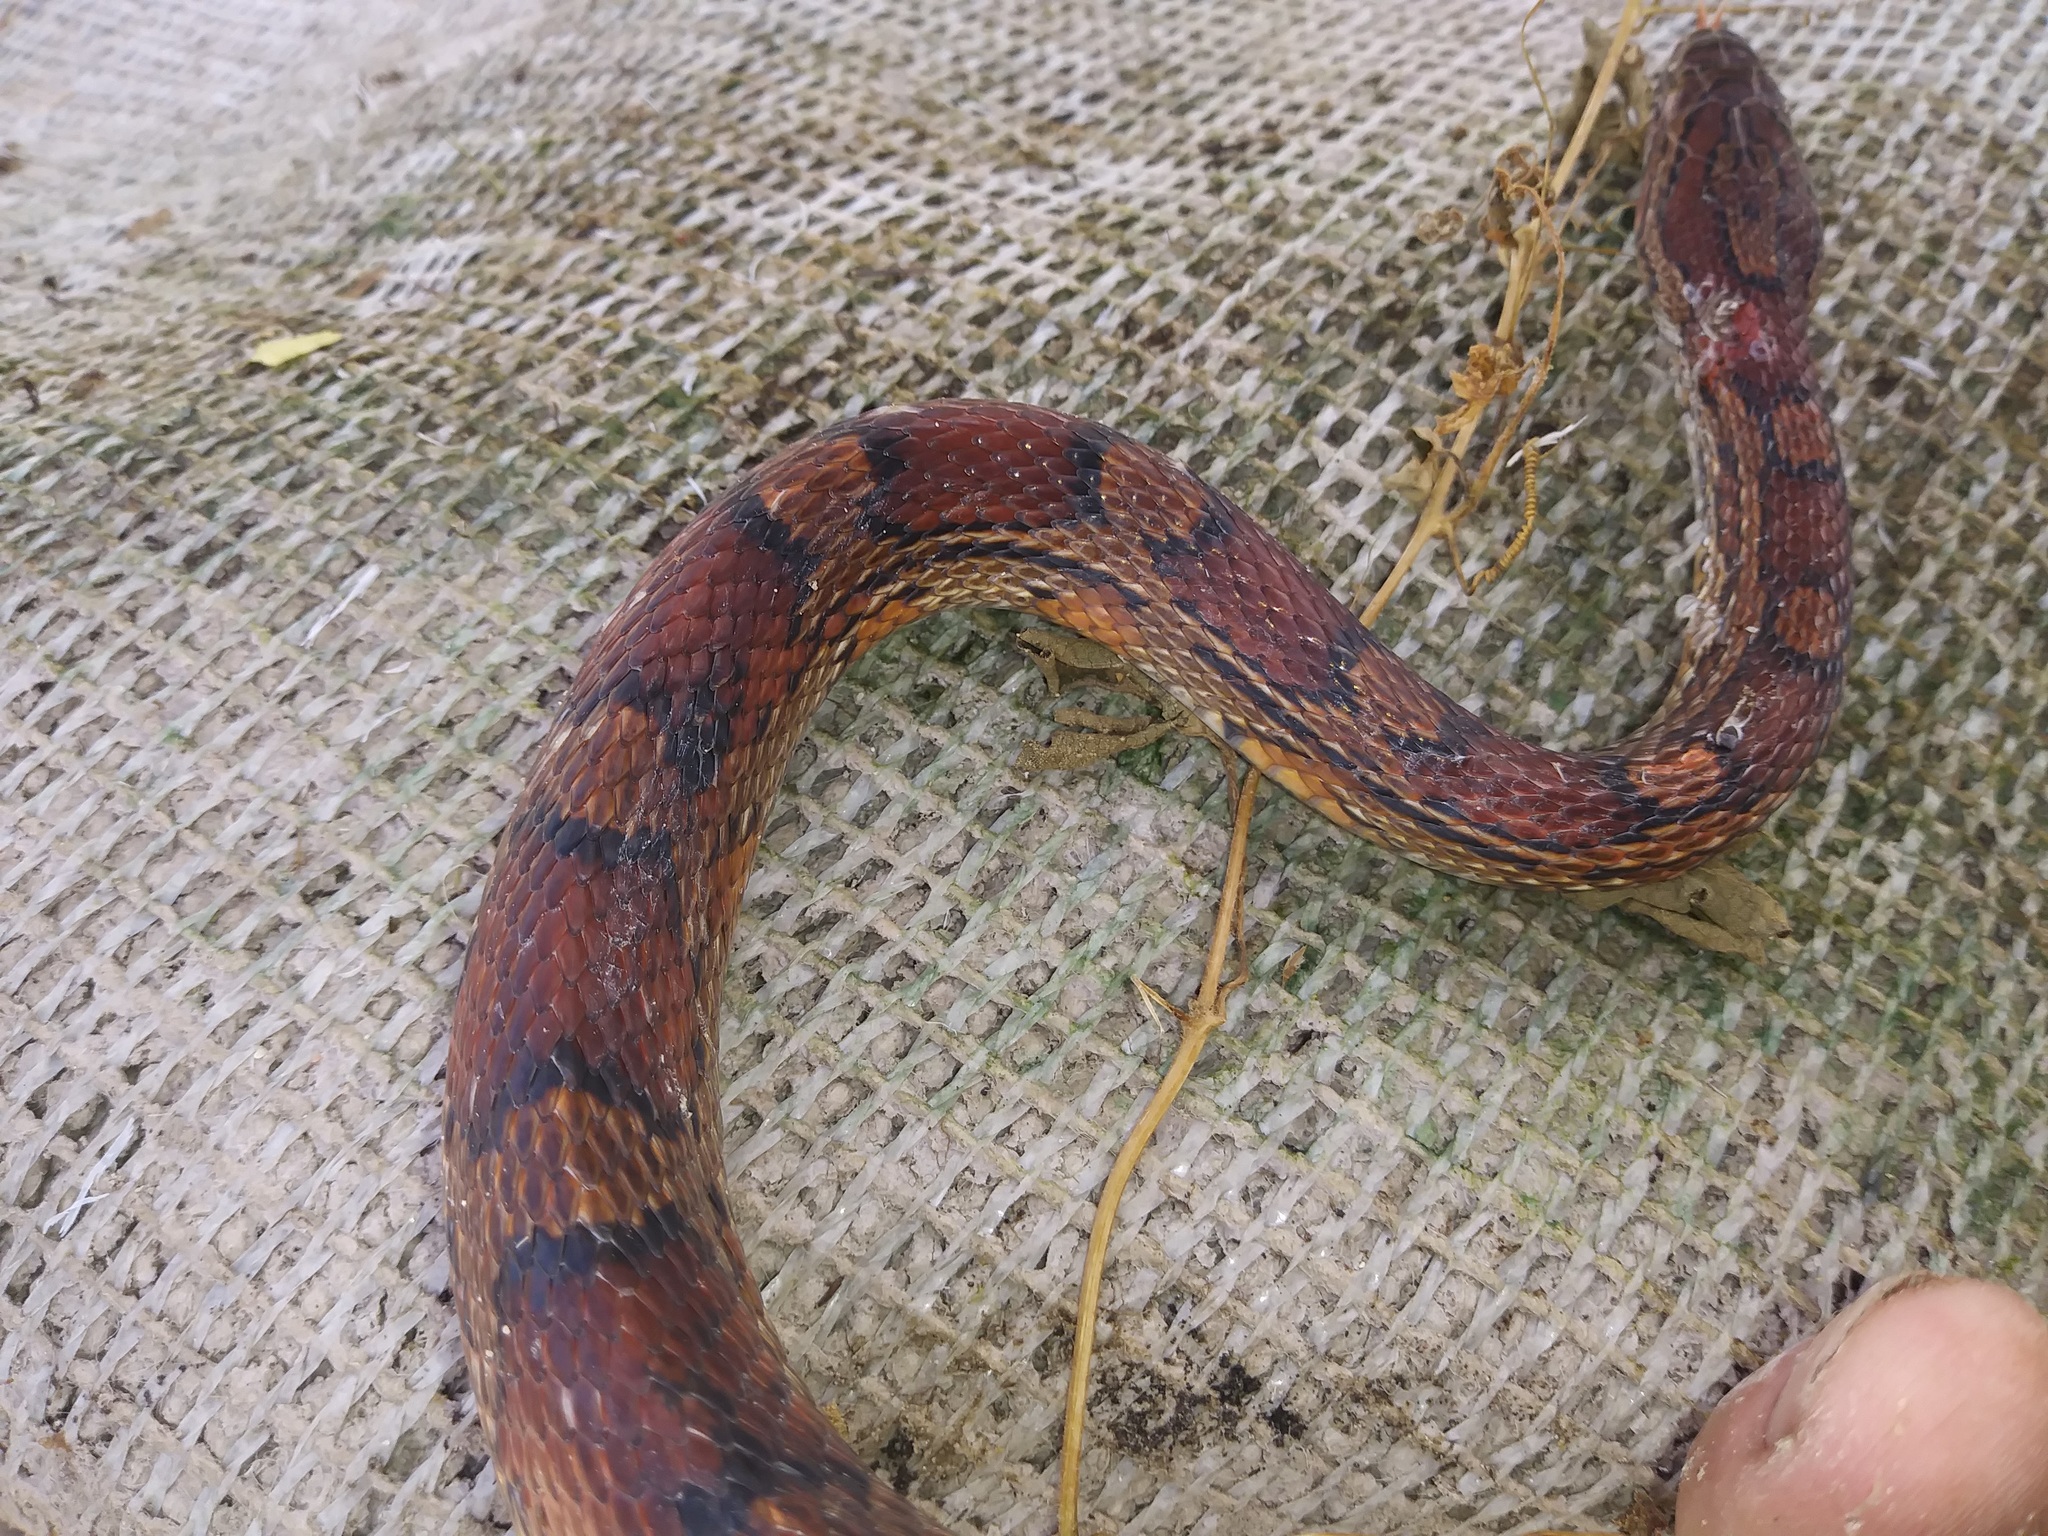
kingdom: Animalia
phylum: Chordata
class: Squamata
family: Colubridae
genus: Pantherophis
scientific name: Pantherophis guttatus
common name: Red cornsnake
